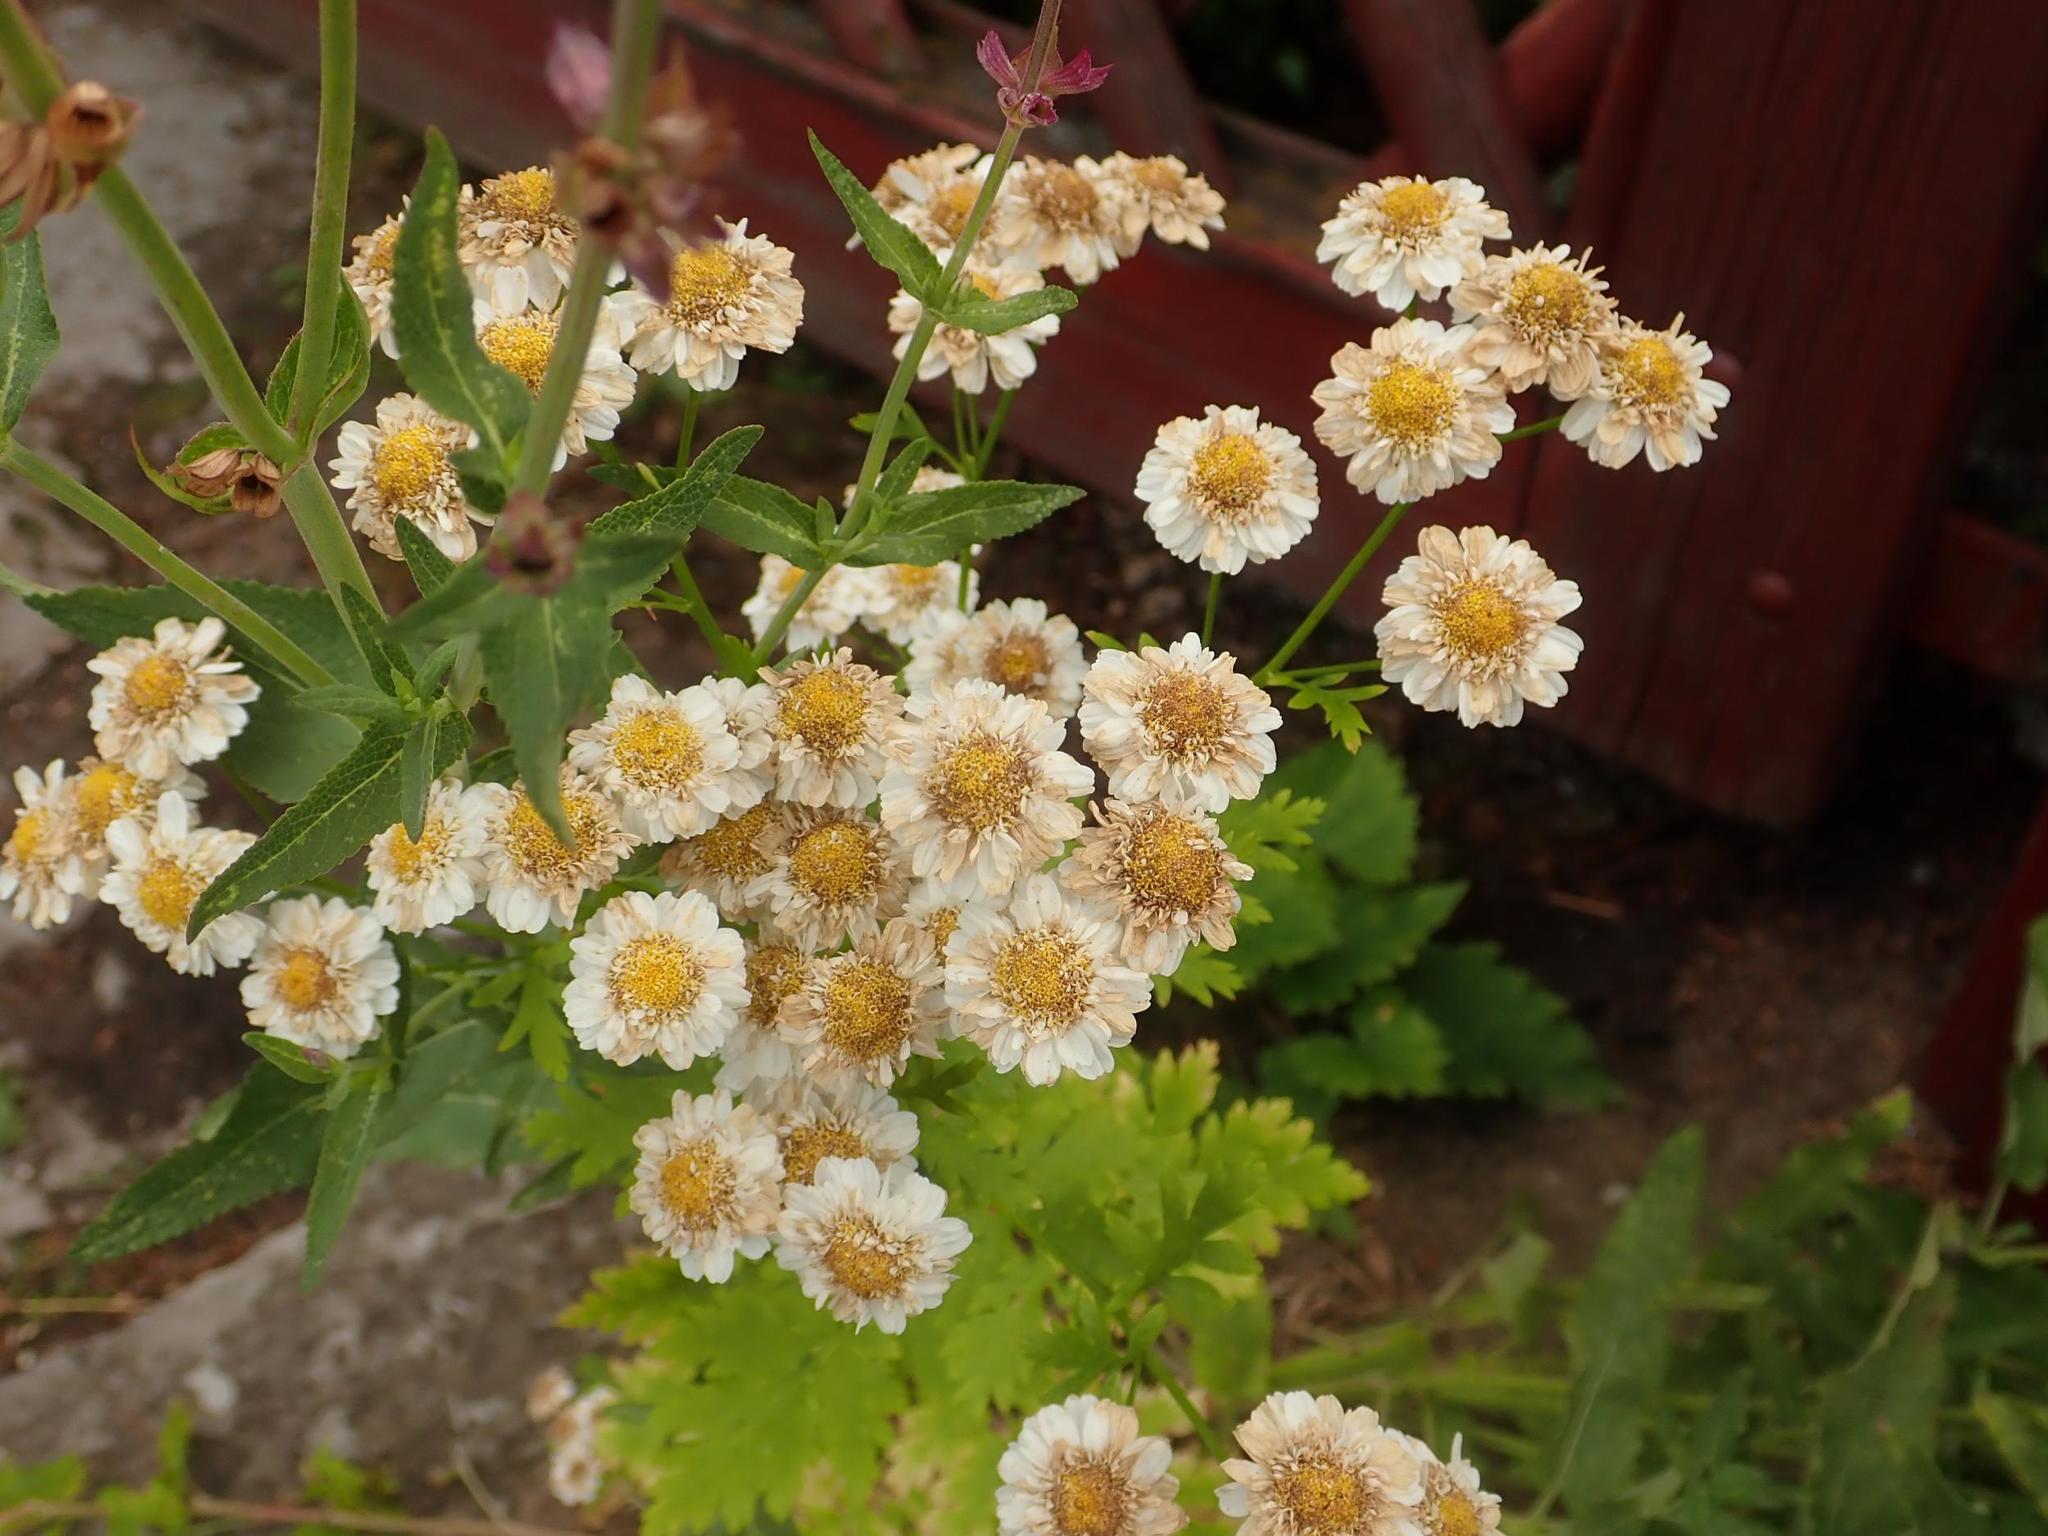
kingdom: Plantae
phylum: Tracheophyta
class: Magnoliopsida
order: Asterales
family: Asteraceae
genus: Tanacetum
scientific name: Tanacetum parthenium
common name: Feverfew
